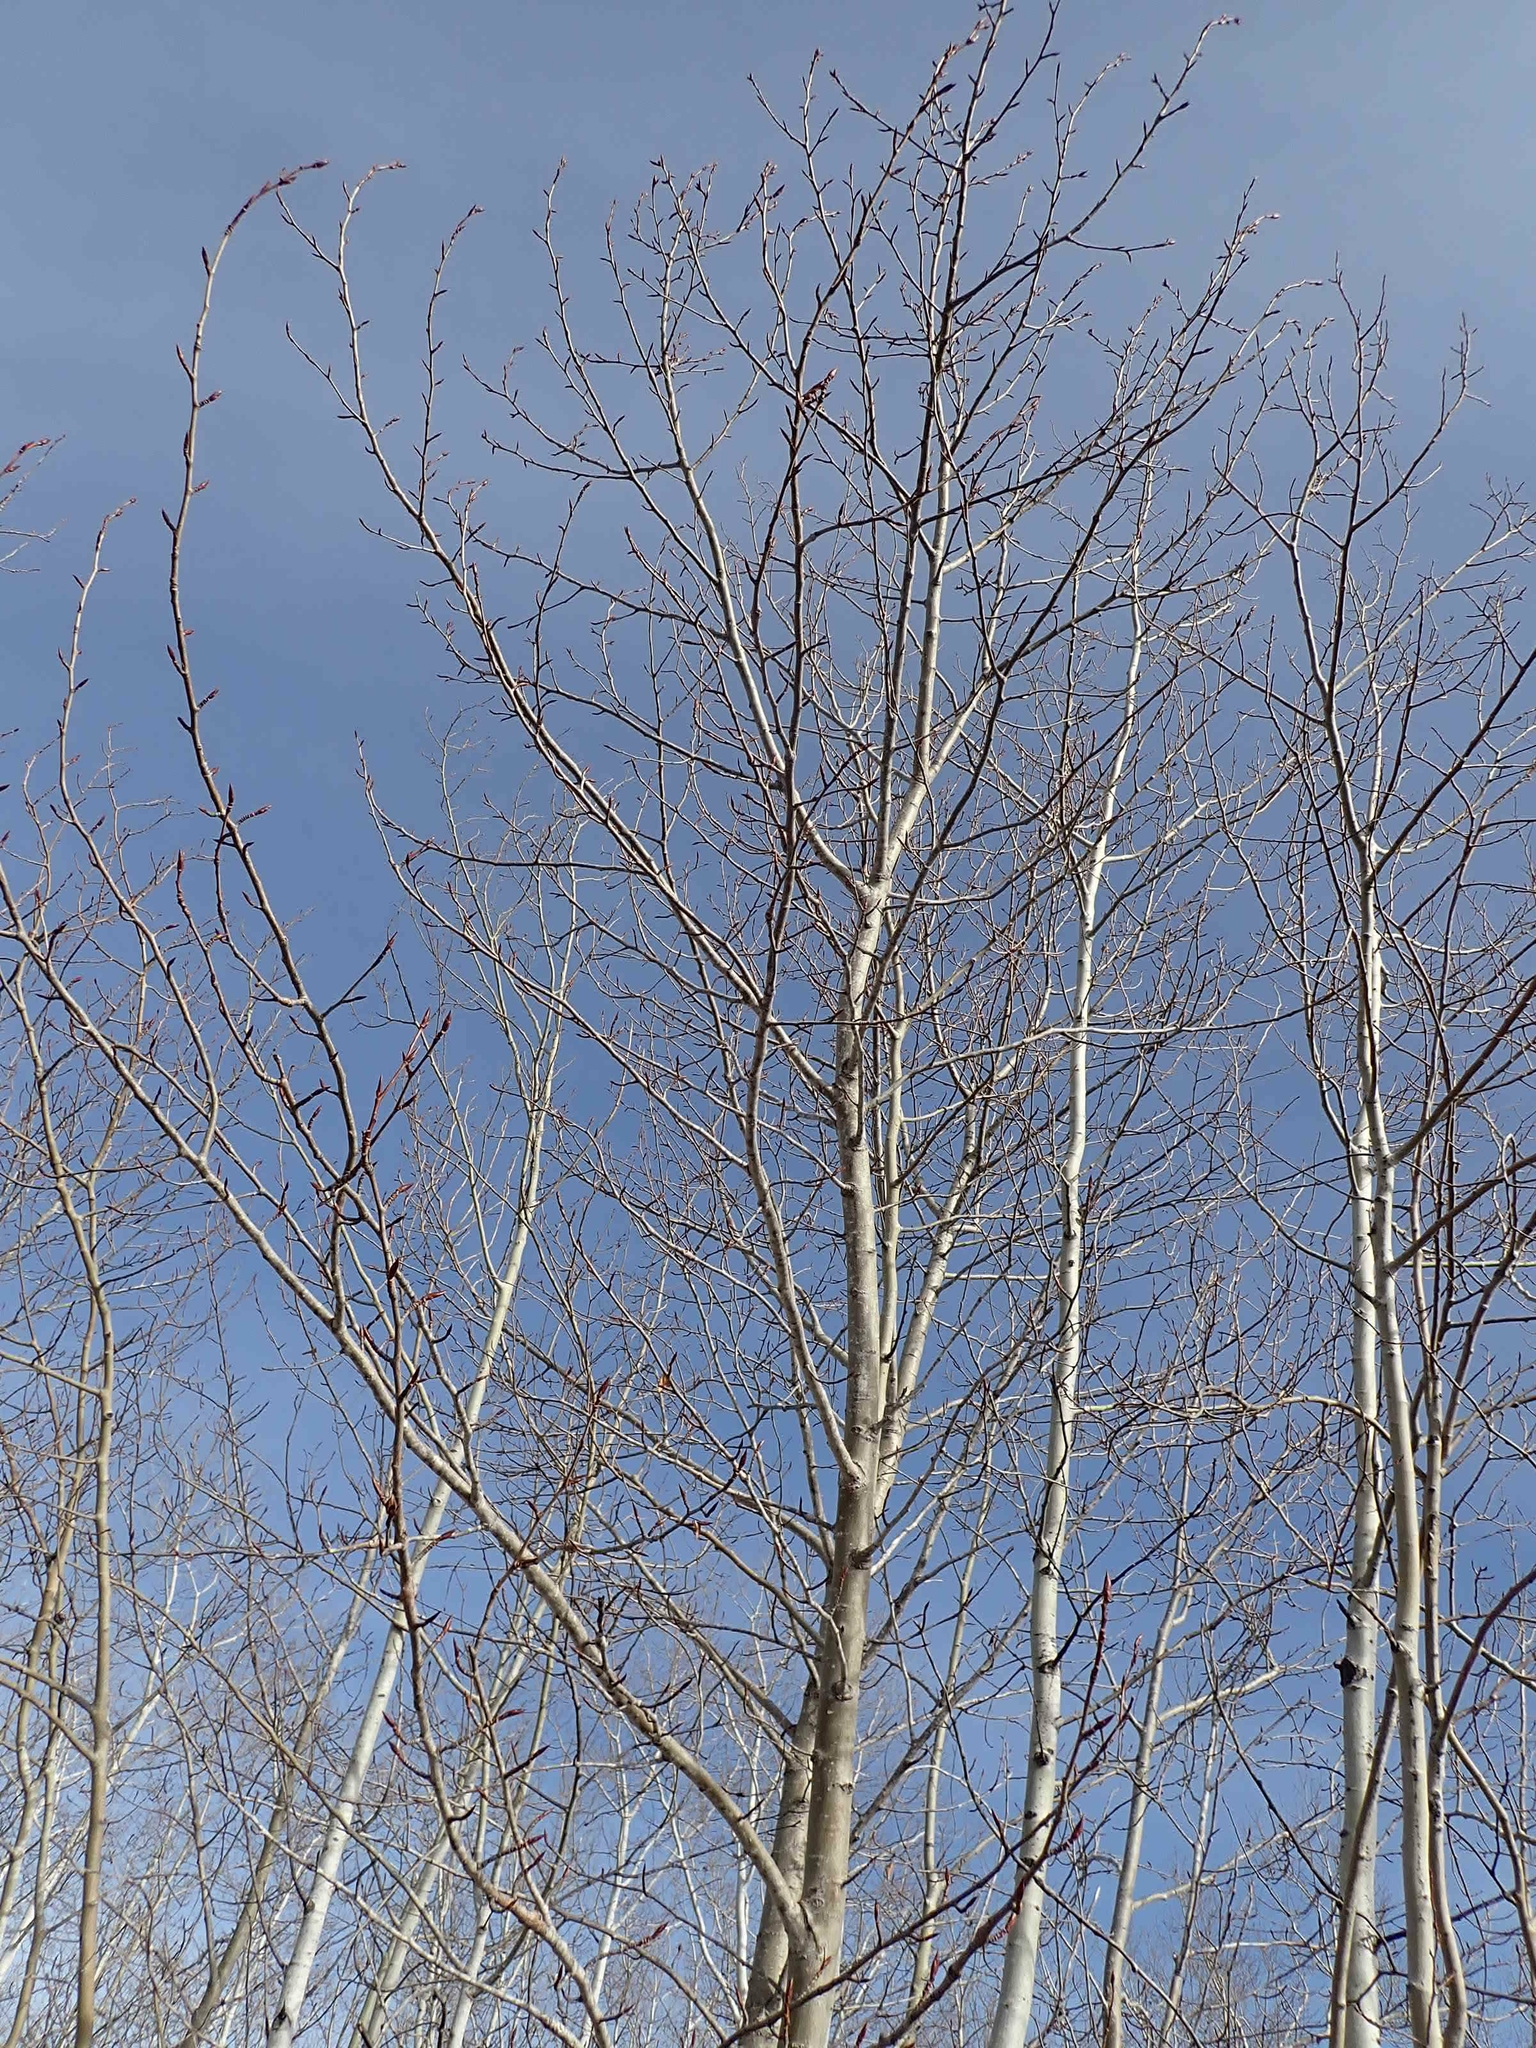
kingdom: Plantae
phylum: Tracheophyta
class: Magnoliopsida
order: Malpighiales
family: Salicaceae
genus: Populus
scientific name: Populus balsamifera
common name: Balsam poplar
